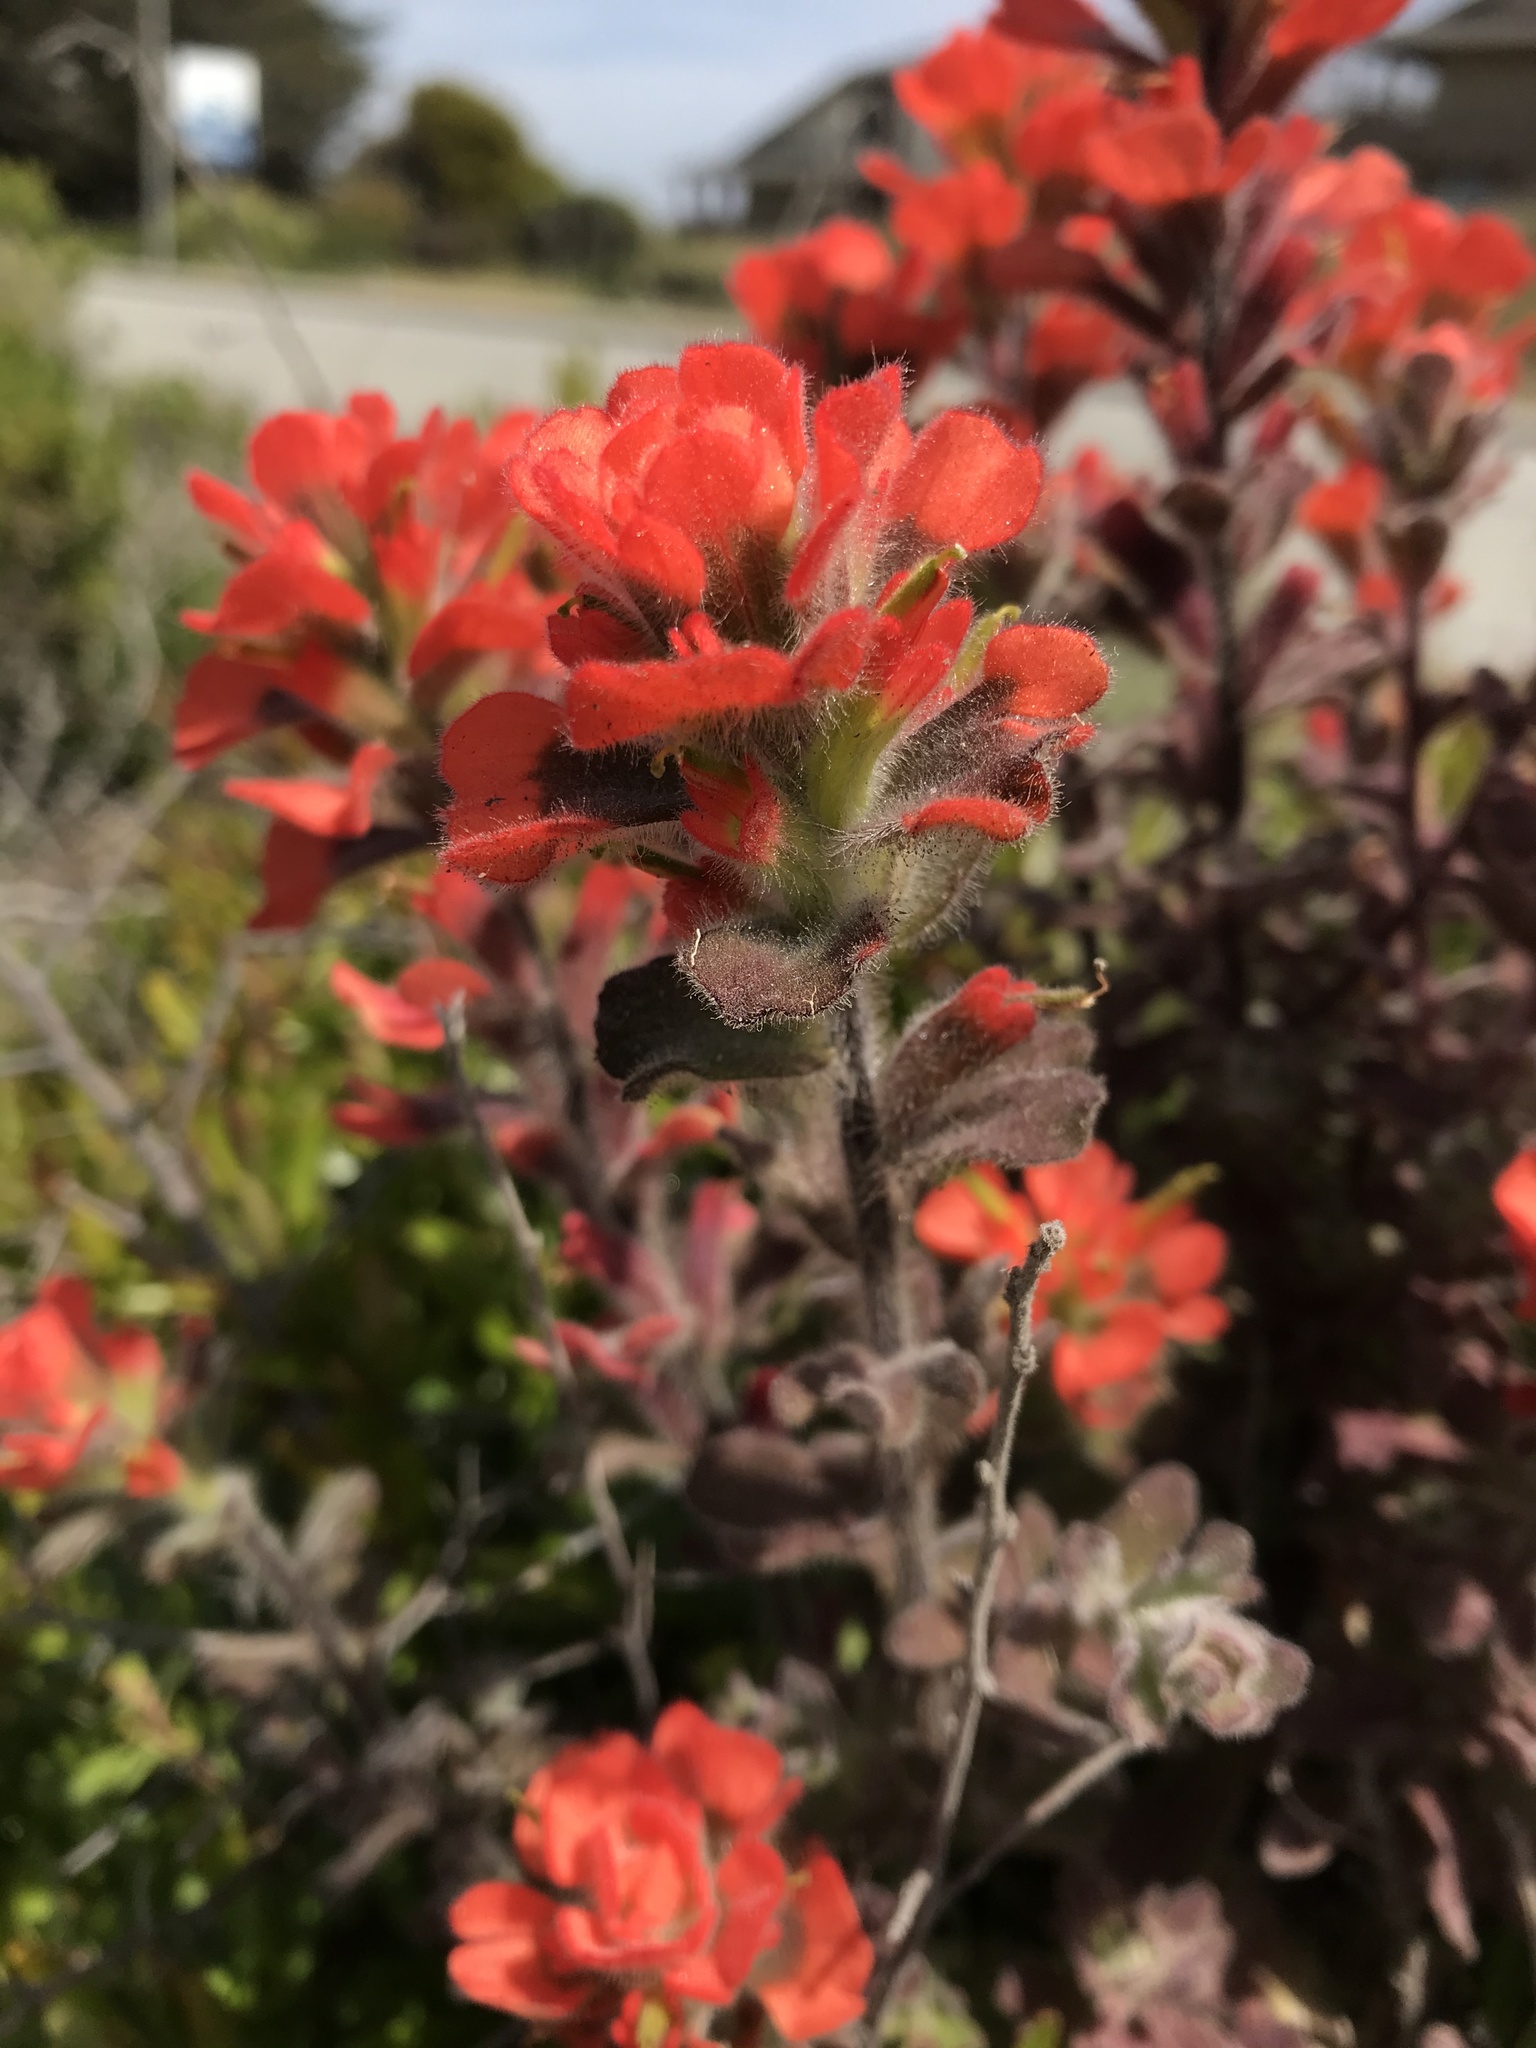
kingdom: Plantae
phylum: Tracheophyta
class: Magnoliopsida
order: Lamiales
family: Orobanchaceae
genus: Castilleja
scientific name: Castilleja latifolia
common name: Monterey indian paintbrush
